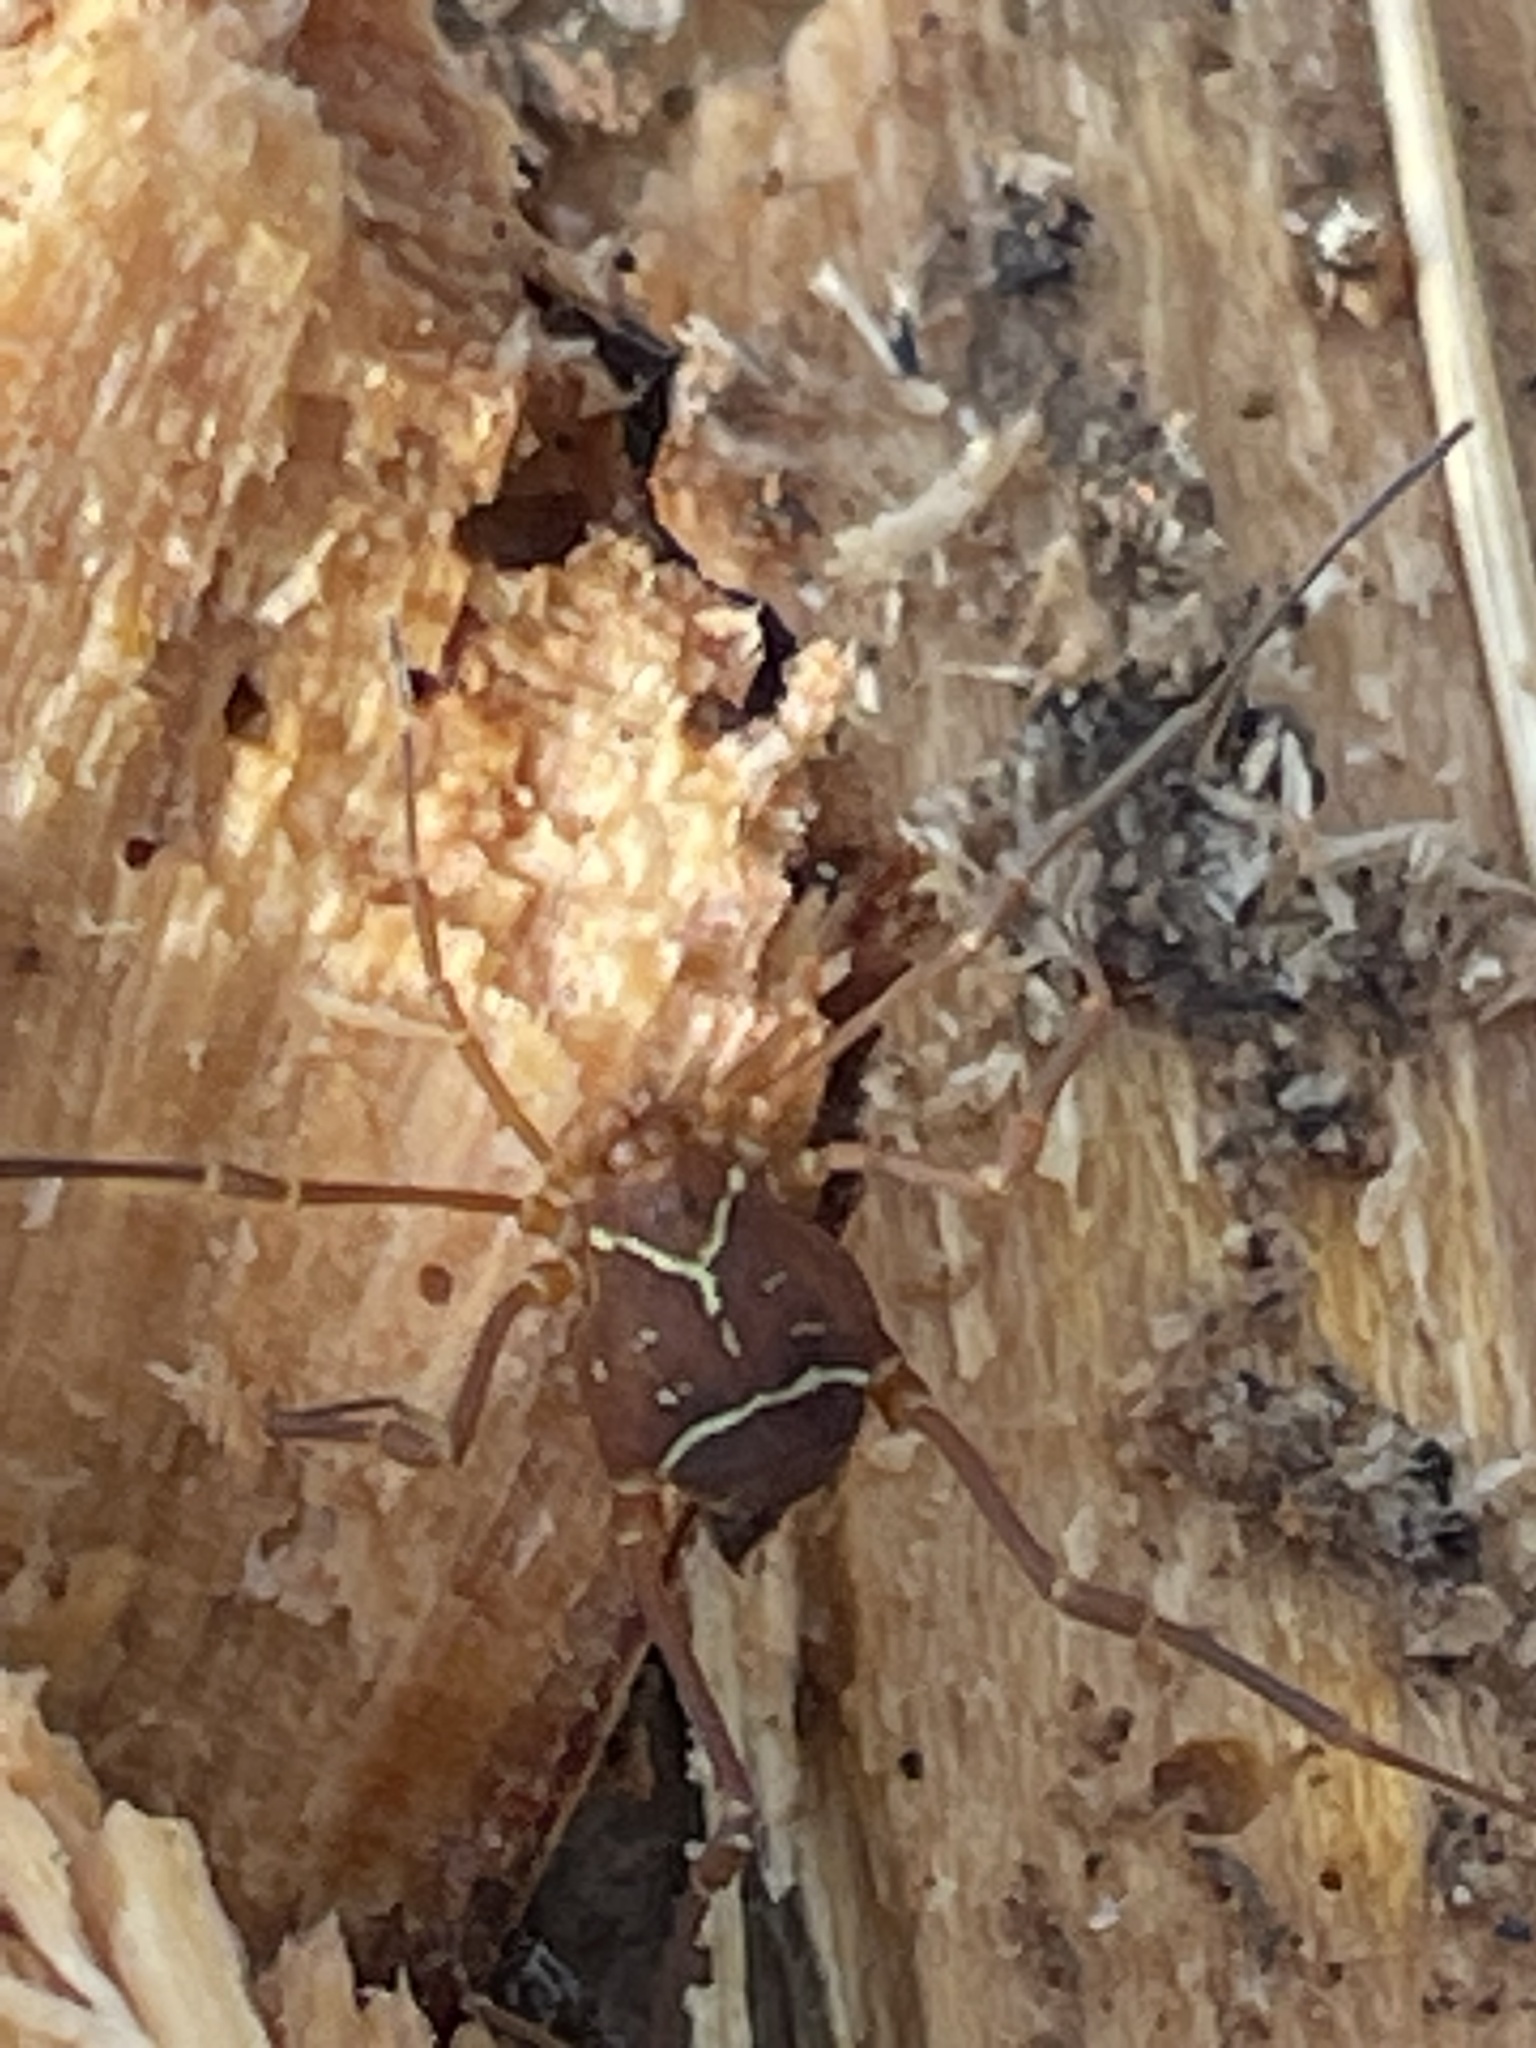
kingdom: Animalia
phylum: Arthropoda
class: Arachnida
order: Opiliones
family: Cosmetidae
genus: Libitioides
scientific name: Libitioides sayi
